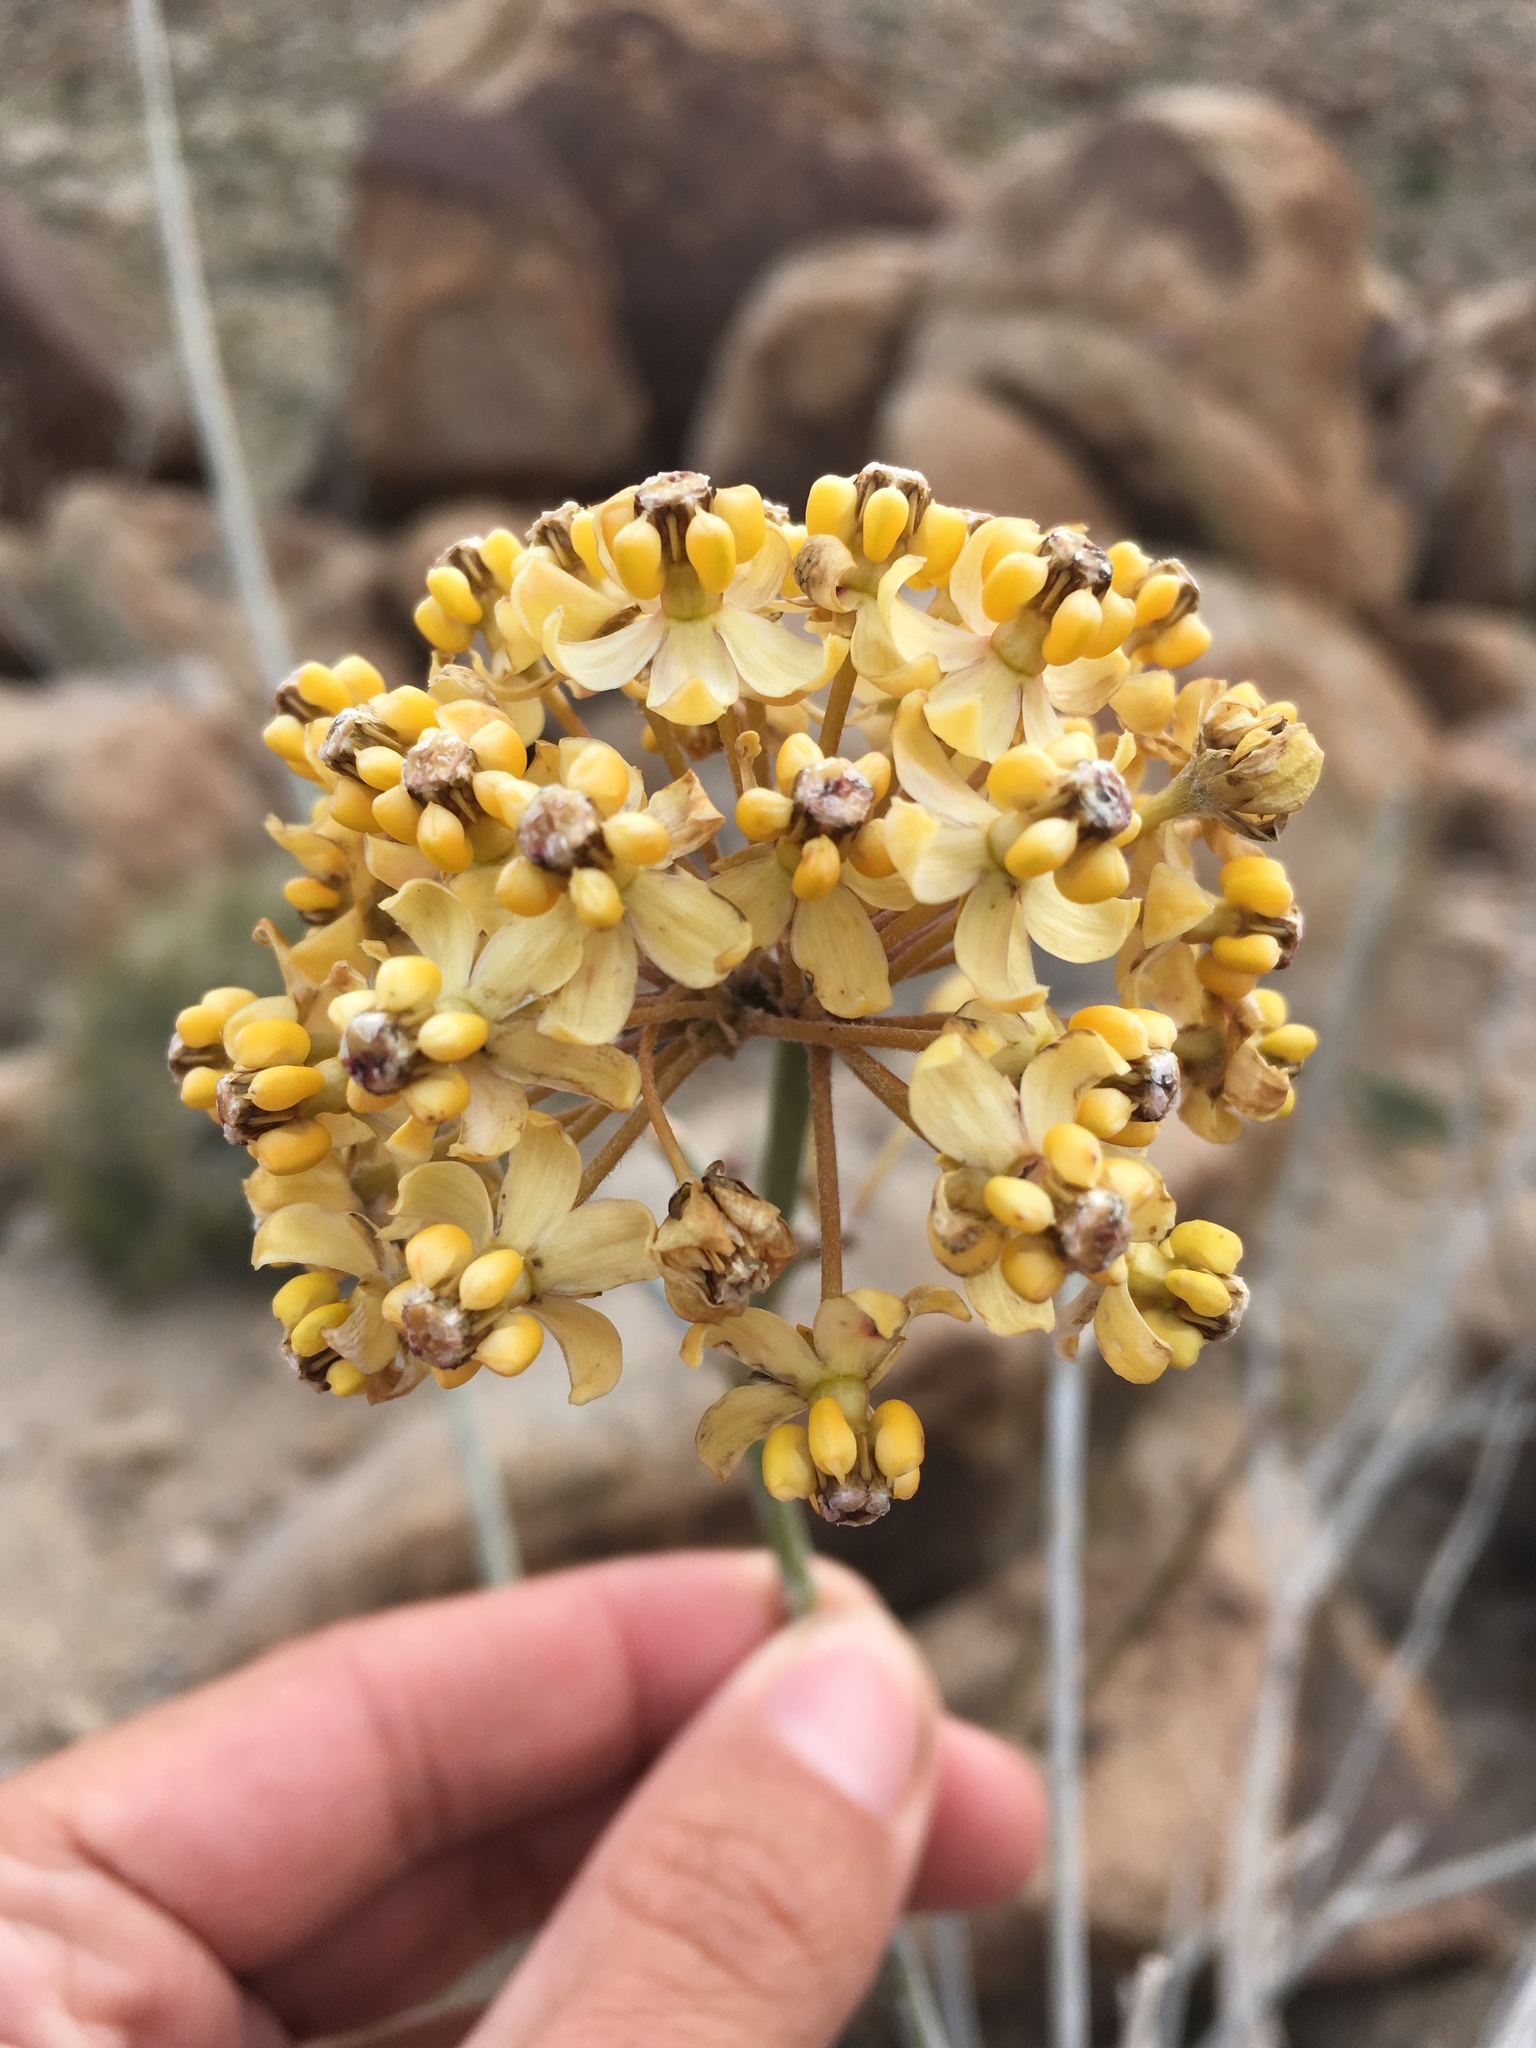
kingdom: Plantae
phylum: Tracheophyta
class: Magnoliopsida
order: Gentianales
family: Apocynaceae
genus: Asclepias
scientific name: Asclepias albicans
